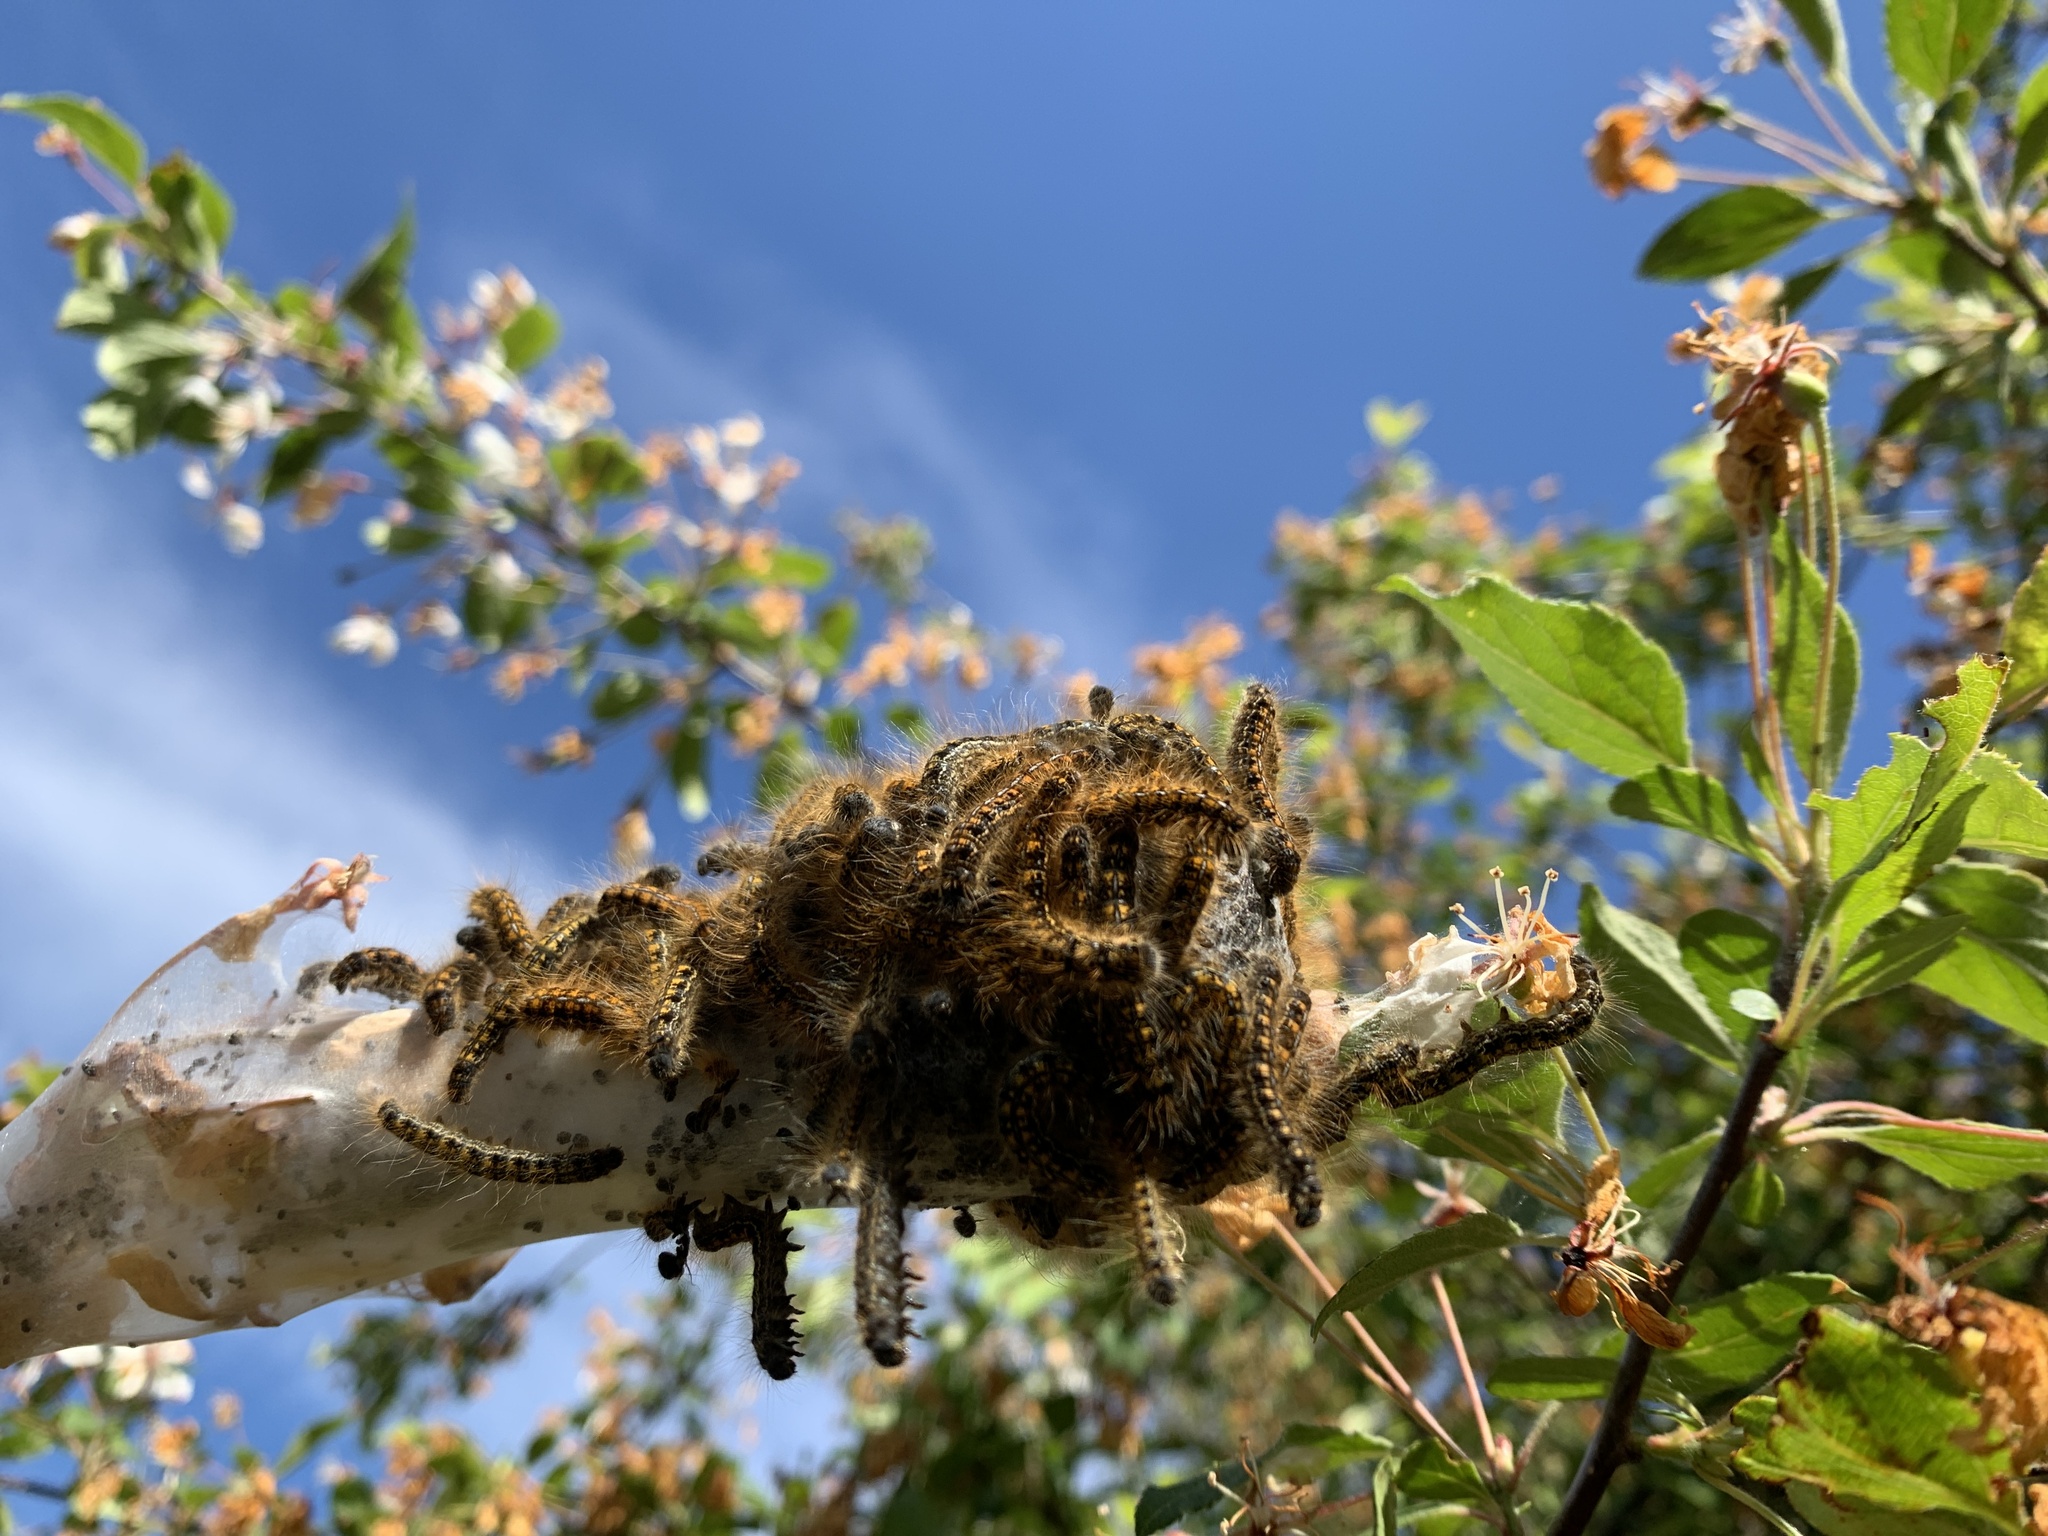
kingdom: Animalia
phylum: Arthropoda
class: Insecta
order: Lepidoptera
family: Lasiocampidae
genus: Malacosoma
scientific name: Malacosoma californica
